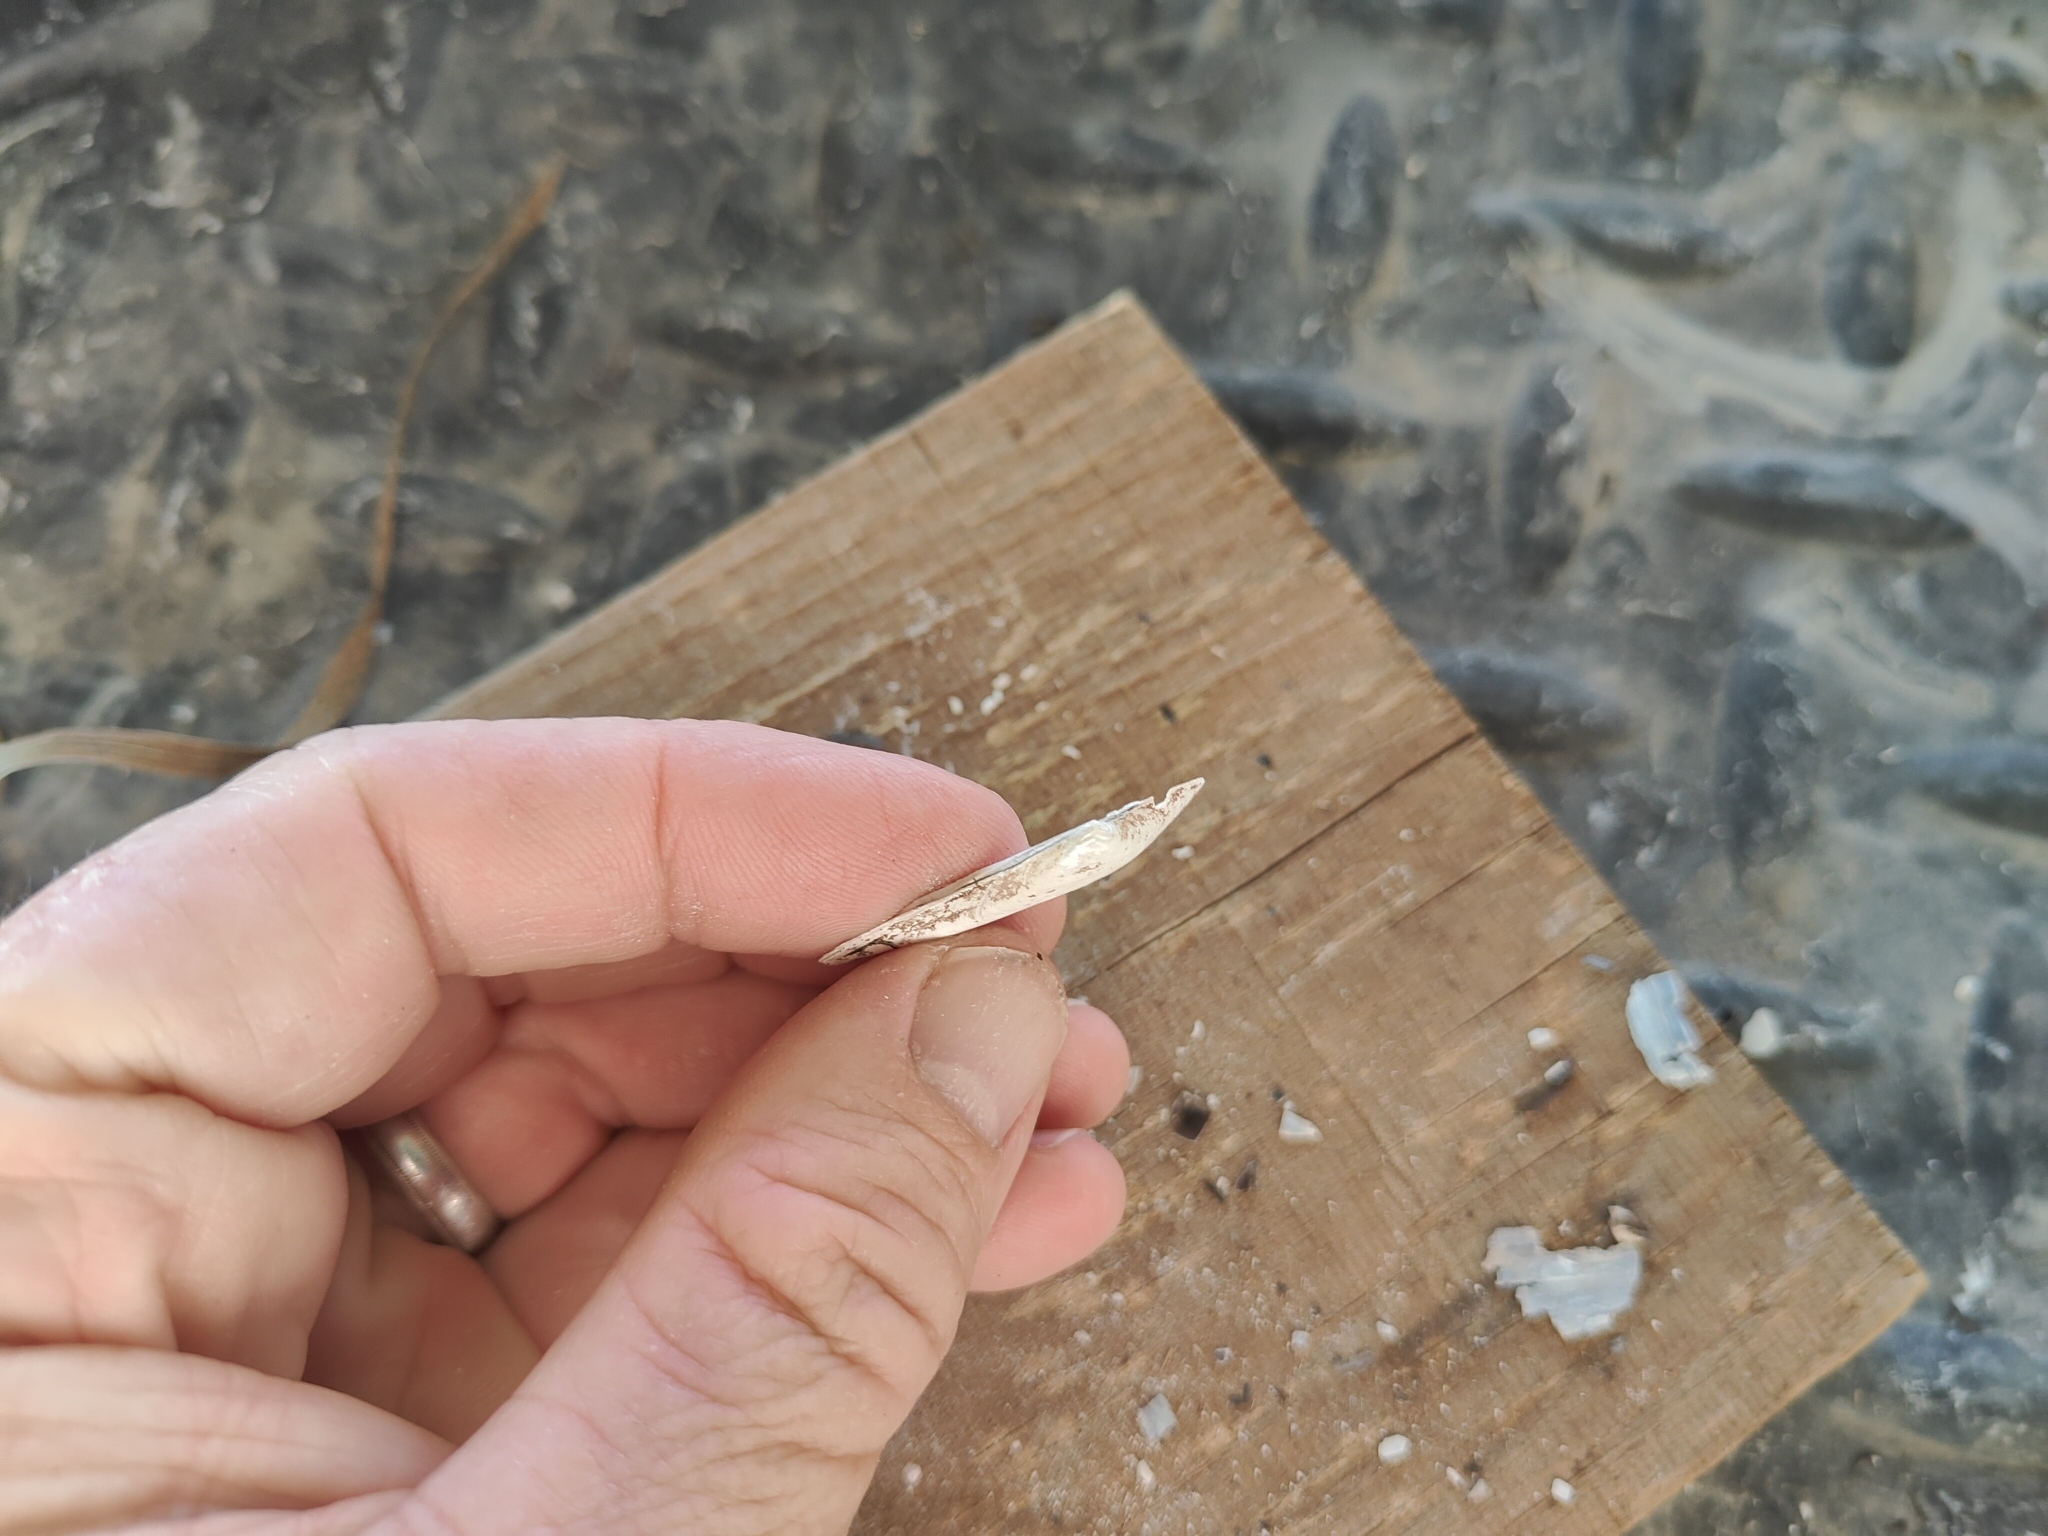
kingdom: Animalia
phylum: Mollusca
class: Bivalvia
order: Unionida
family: Unionidae
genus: Lampsilis
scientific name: Lampsilis teres
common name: Yellow sandshell
